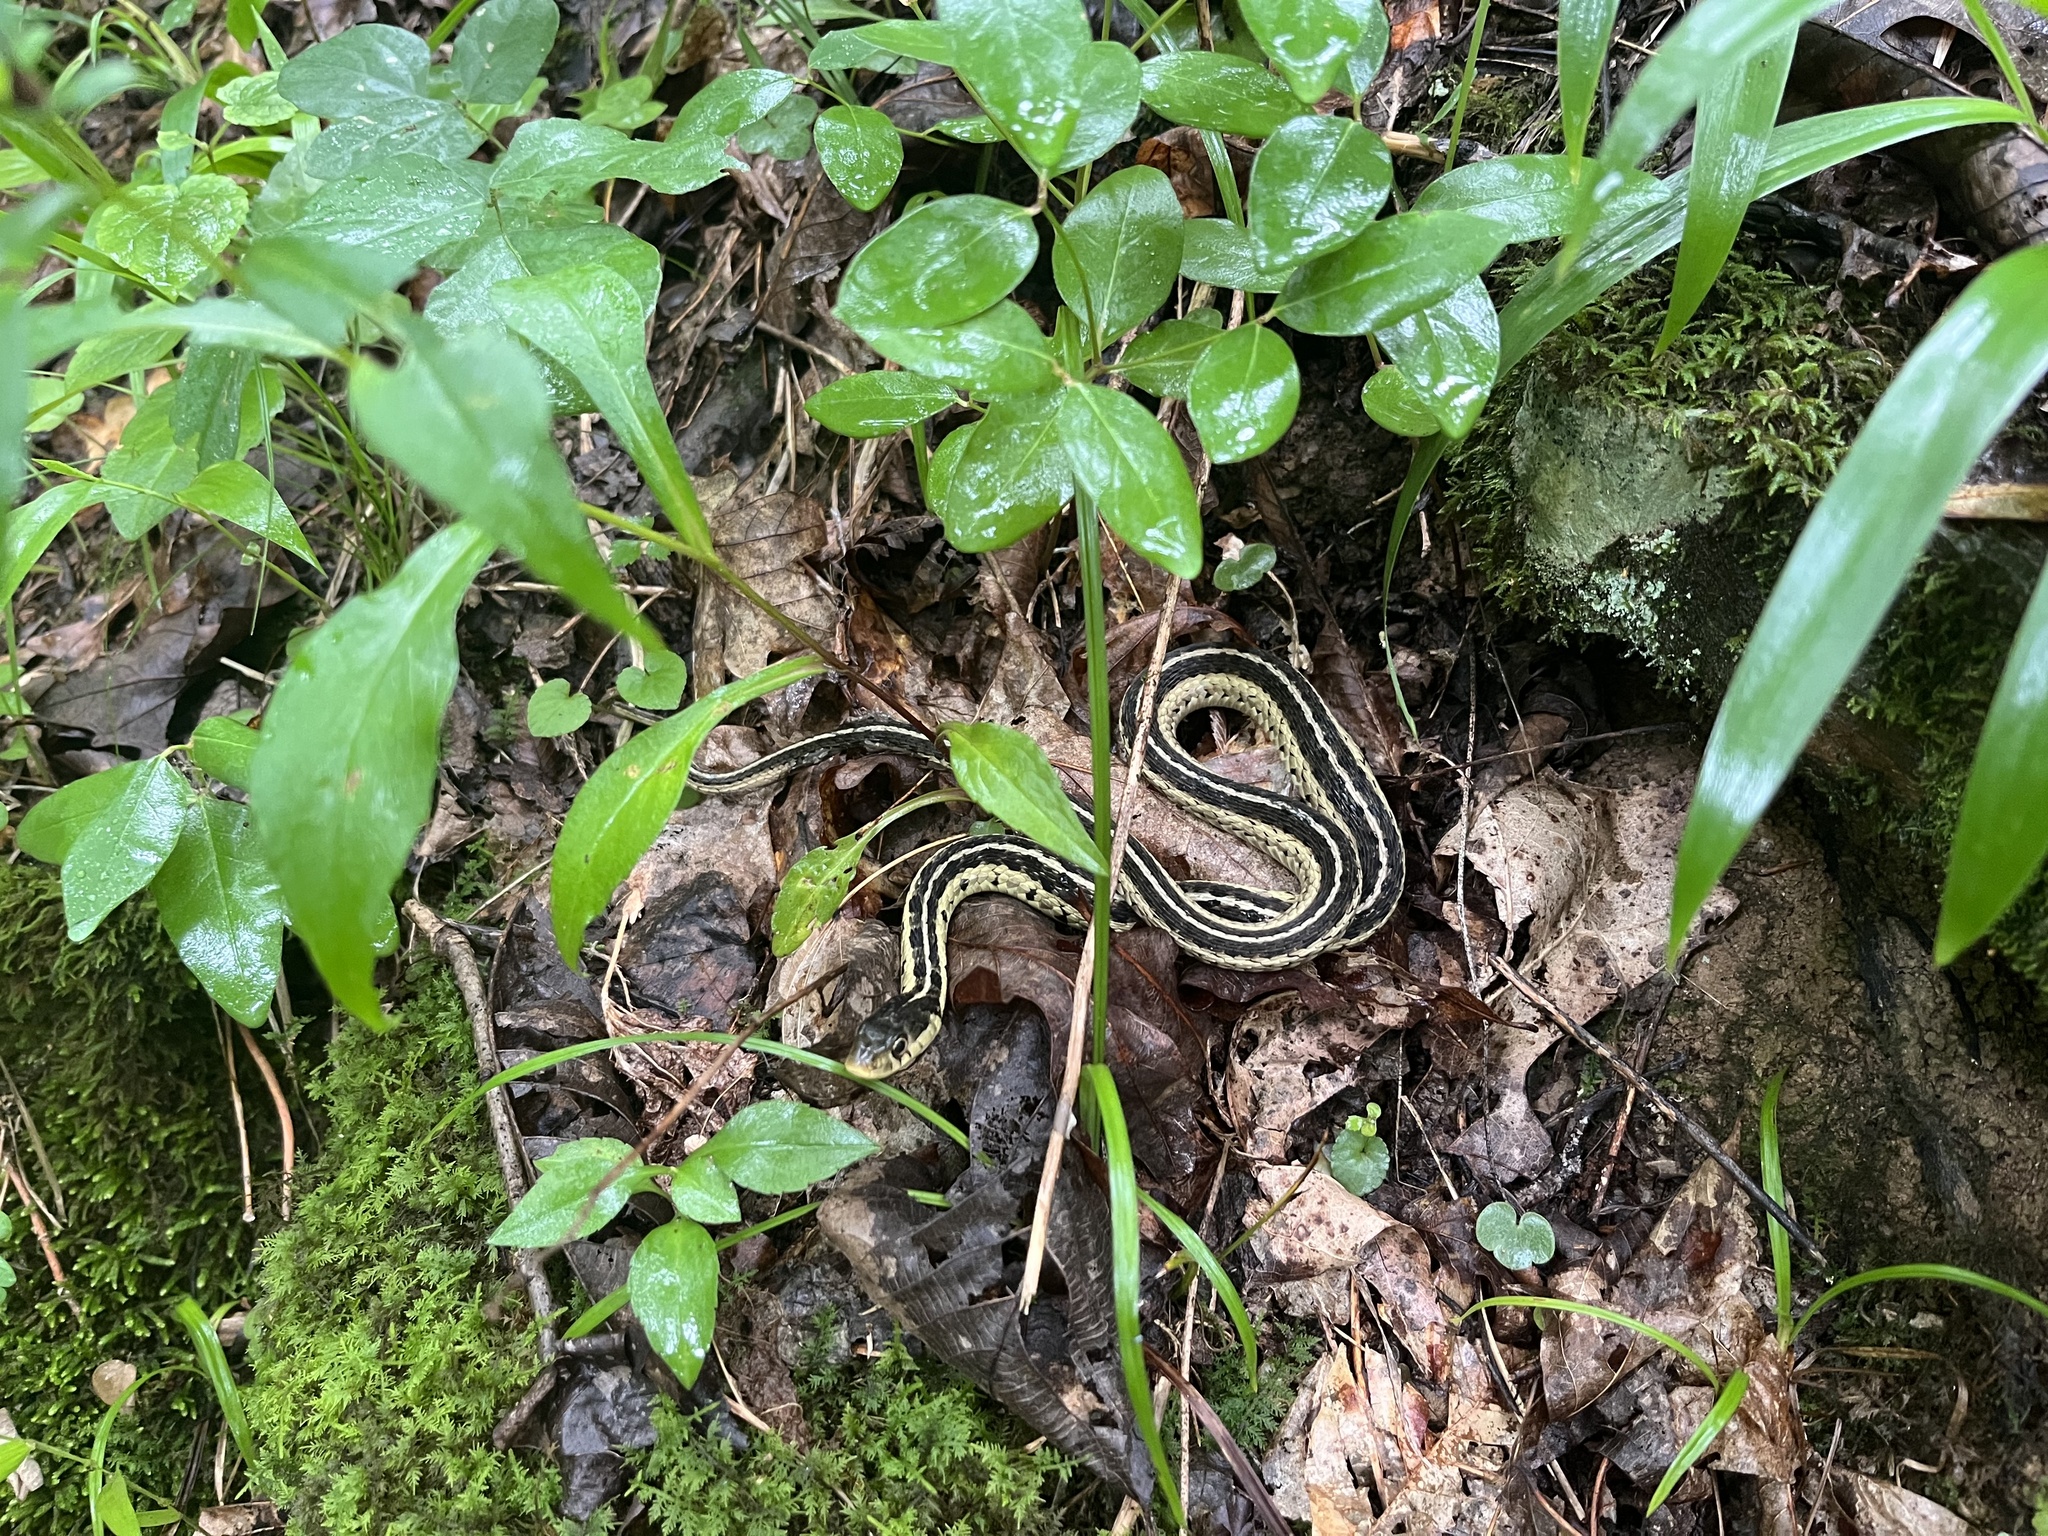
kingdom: Animalia
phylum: Chordata
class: Squamata
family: Colubridae
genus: Thamnophis
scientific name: Thamnophis sirtalis
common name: Common garter snake
